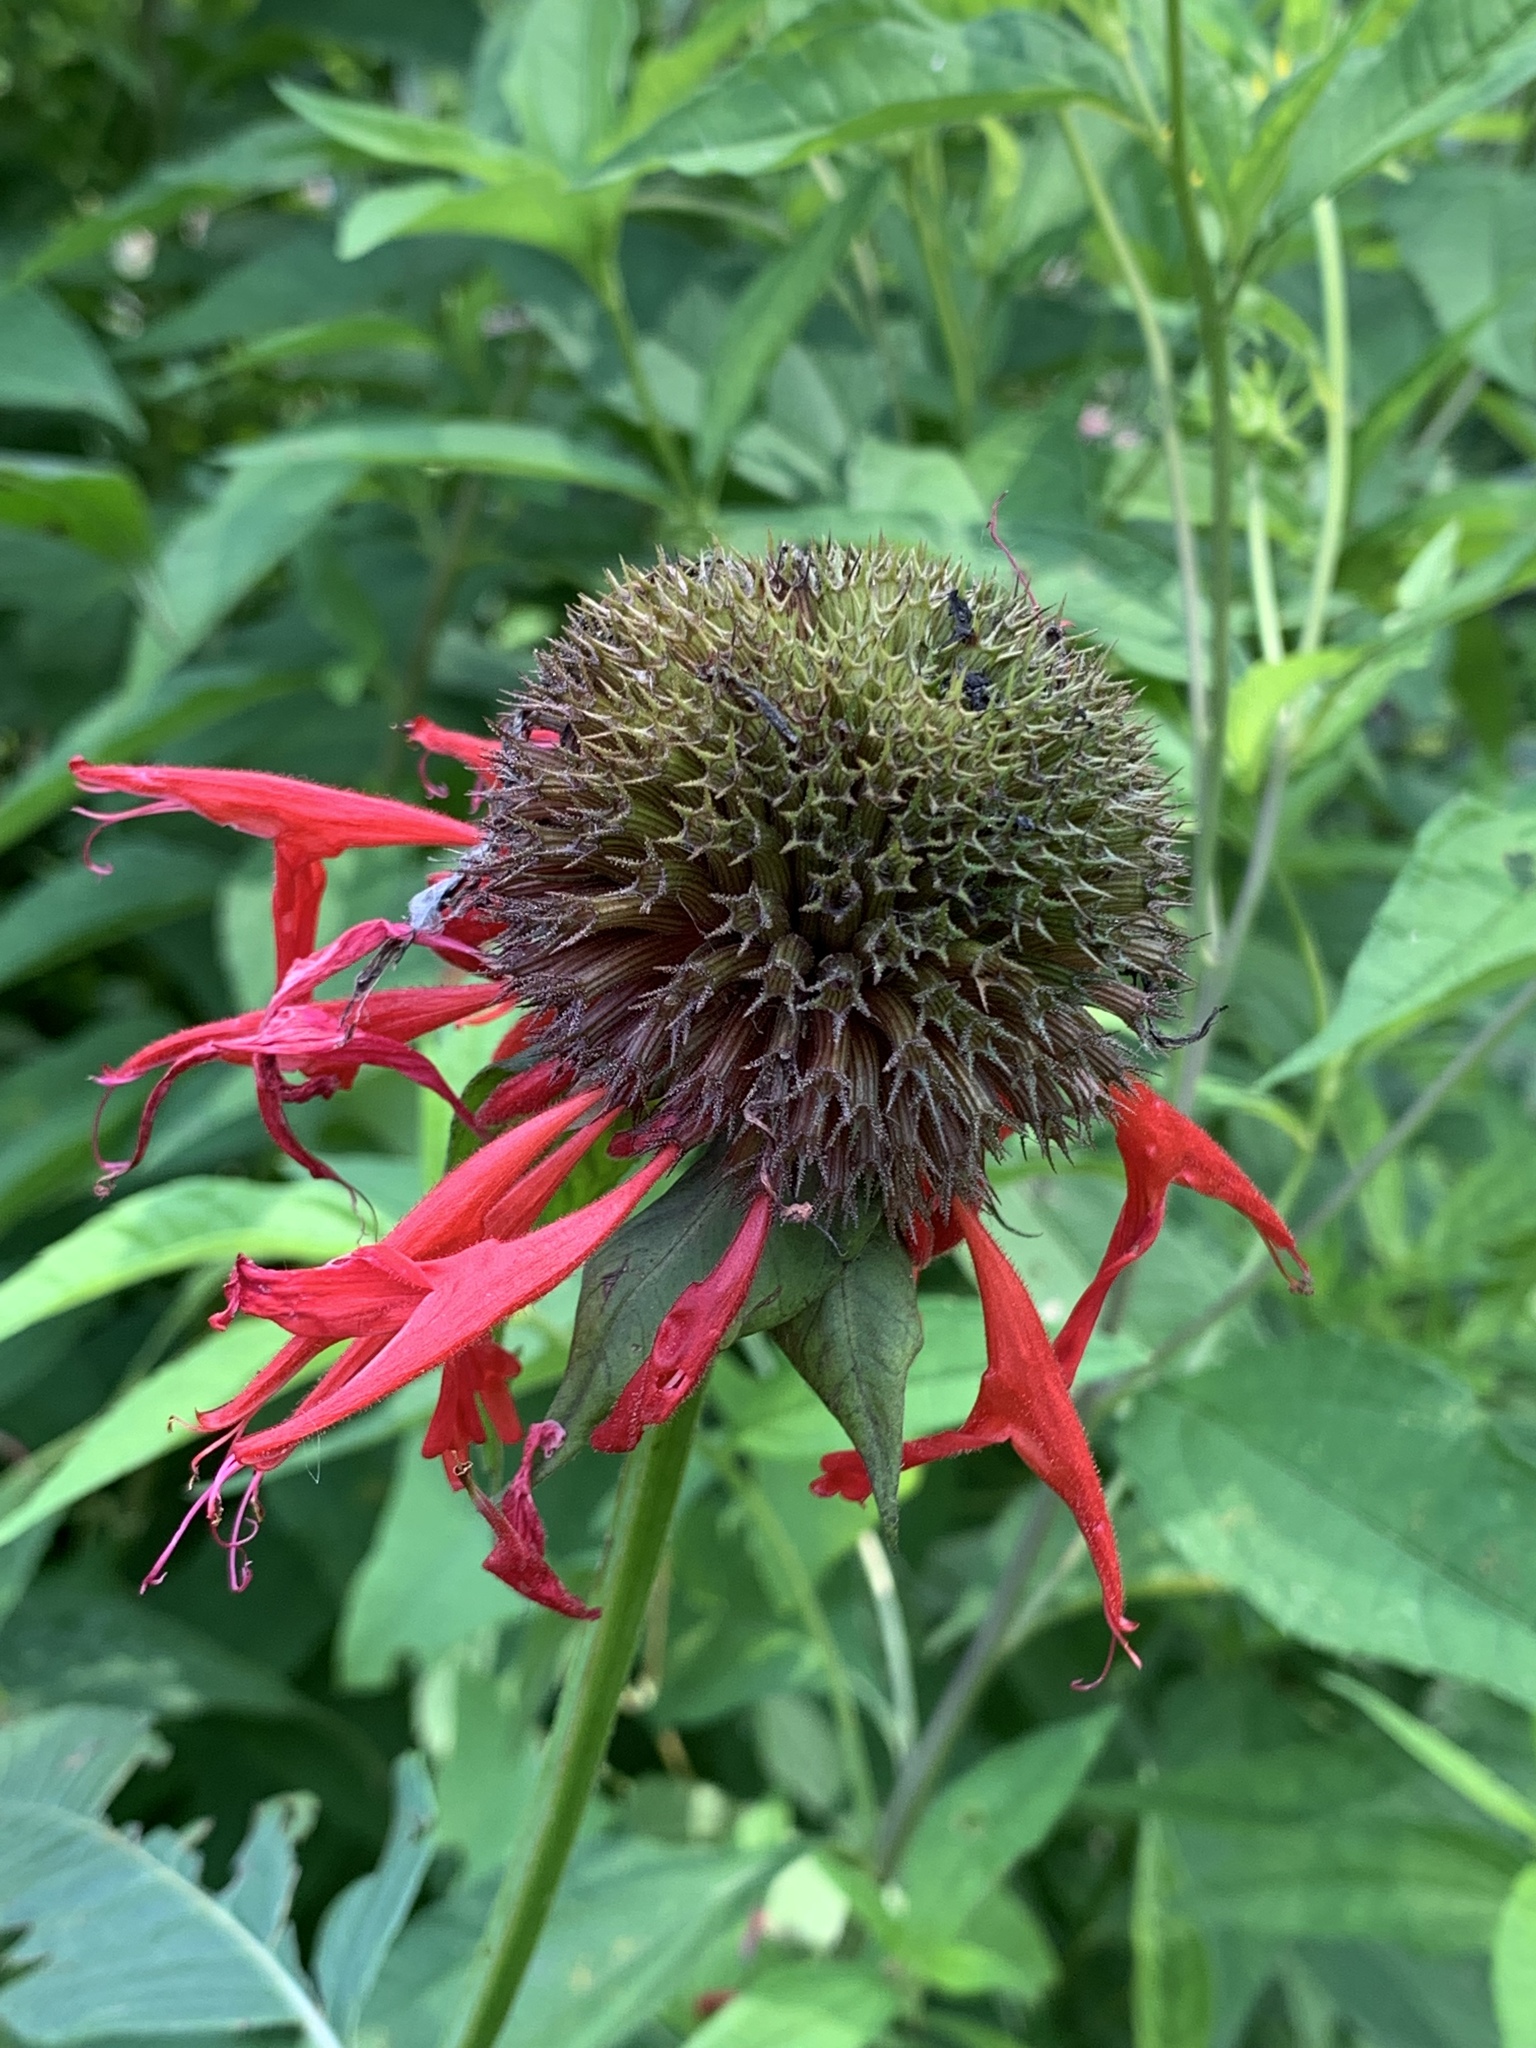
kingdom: Plantae
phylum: Tracheophyta
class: Magnoliopsida
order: Lamiales
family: Lamiaceae
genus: Monarda
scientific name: Monarda didyma
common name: Beebalm
